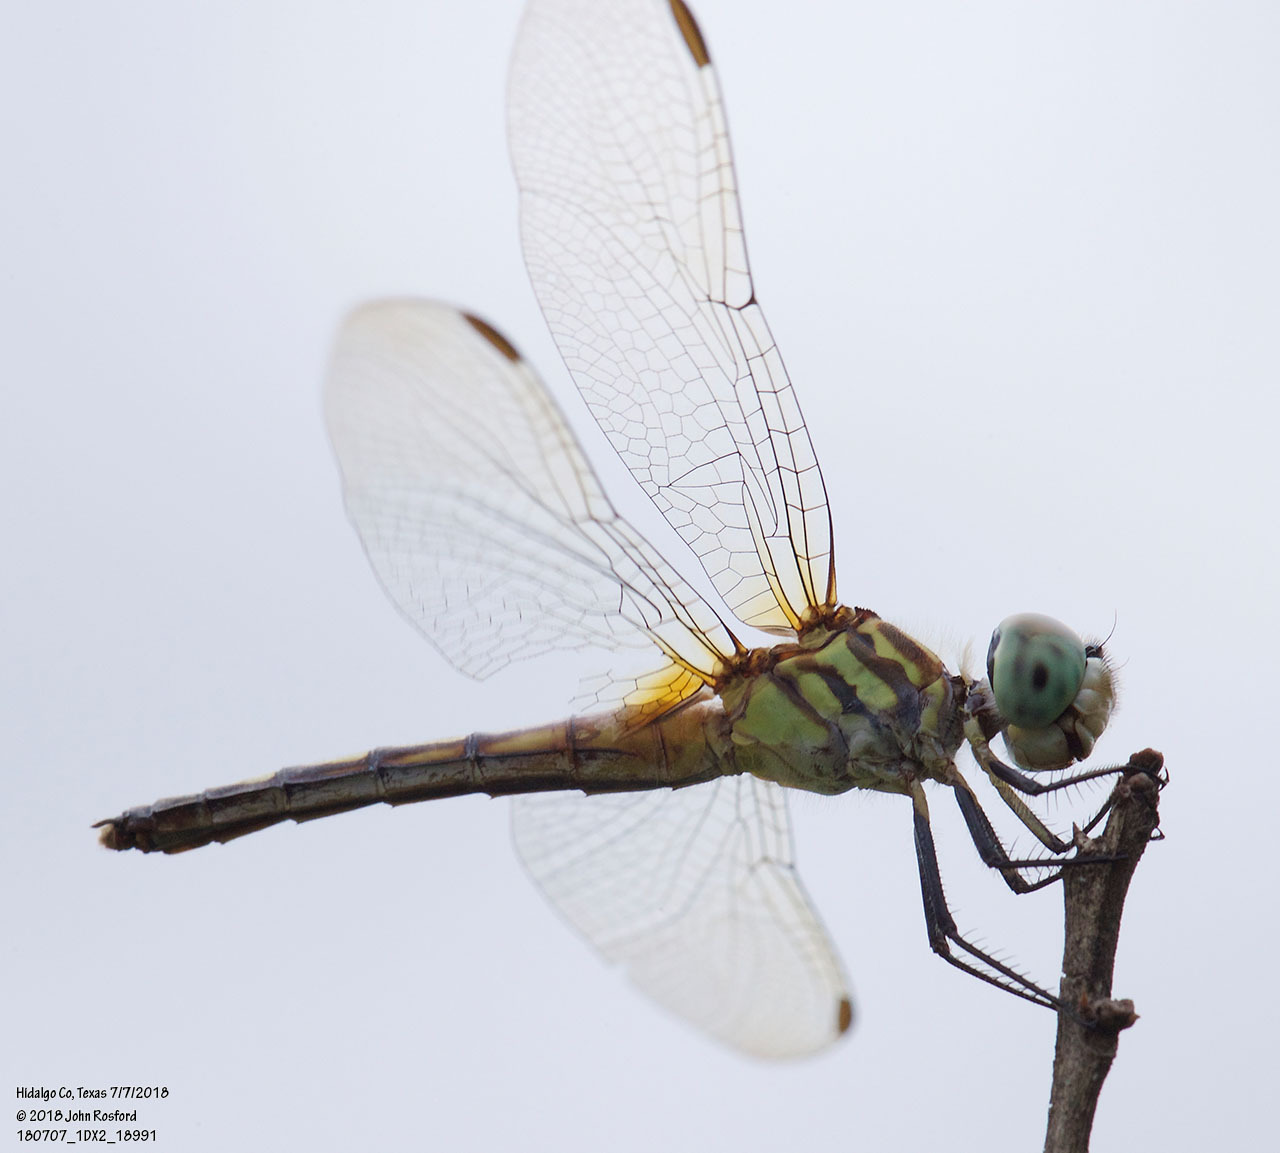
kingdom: Animalia
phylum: Arthropoda
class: Insecta
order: Odonata
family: Libellulidae
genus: Pachydiplax
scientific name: Pachydiplax longipennis
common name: Blue dasher
